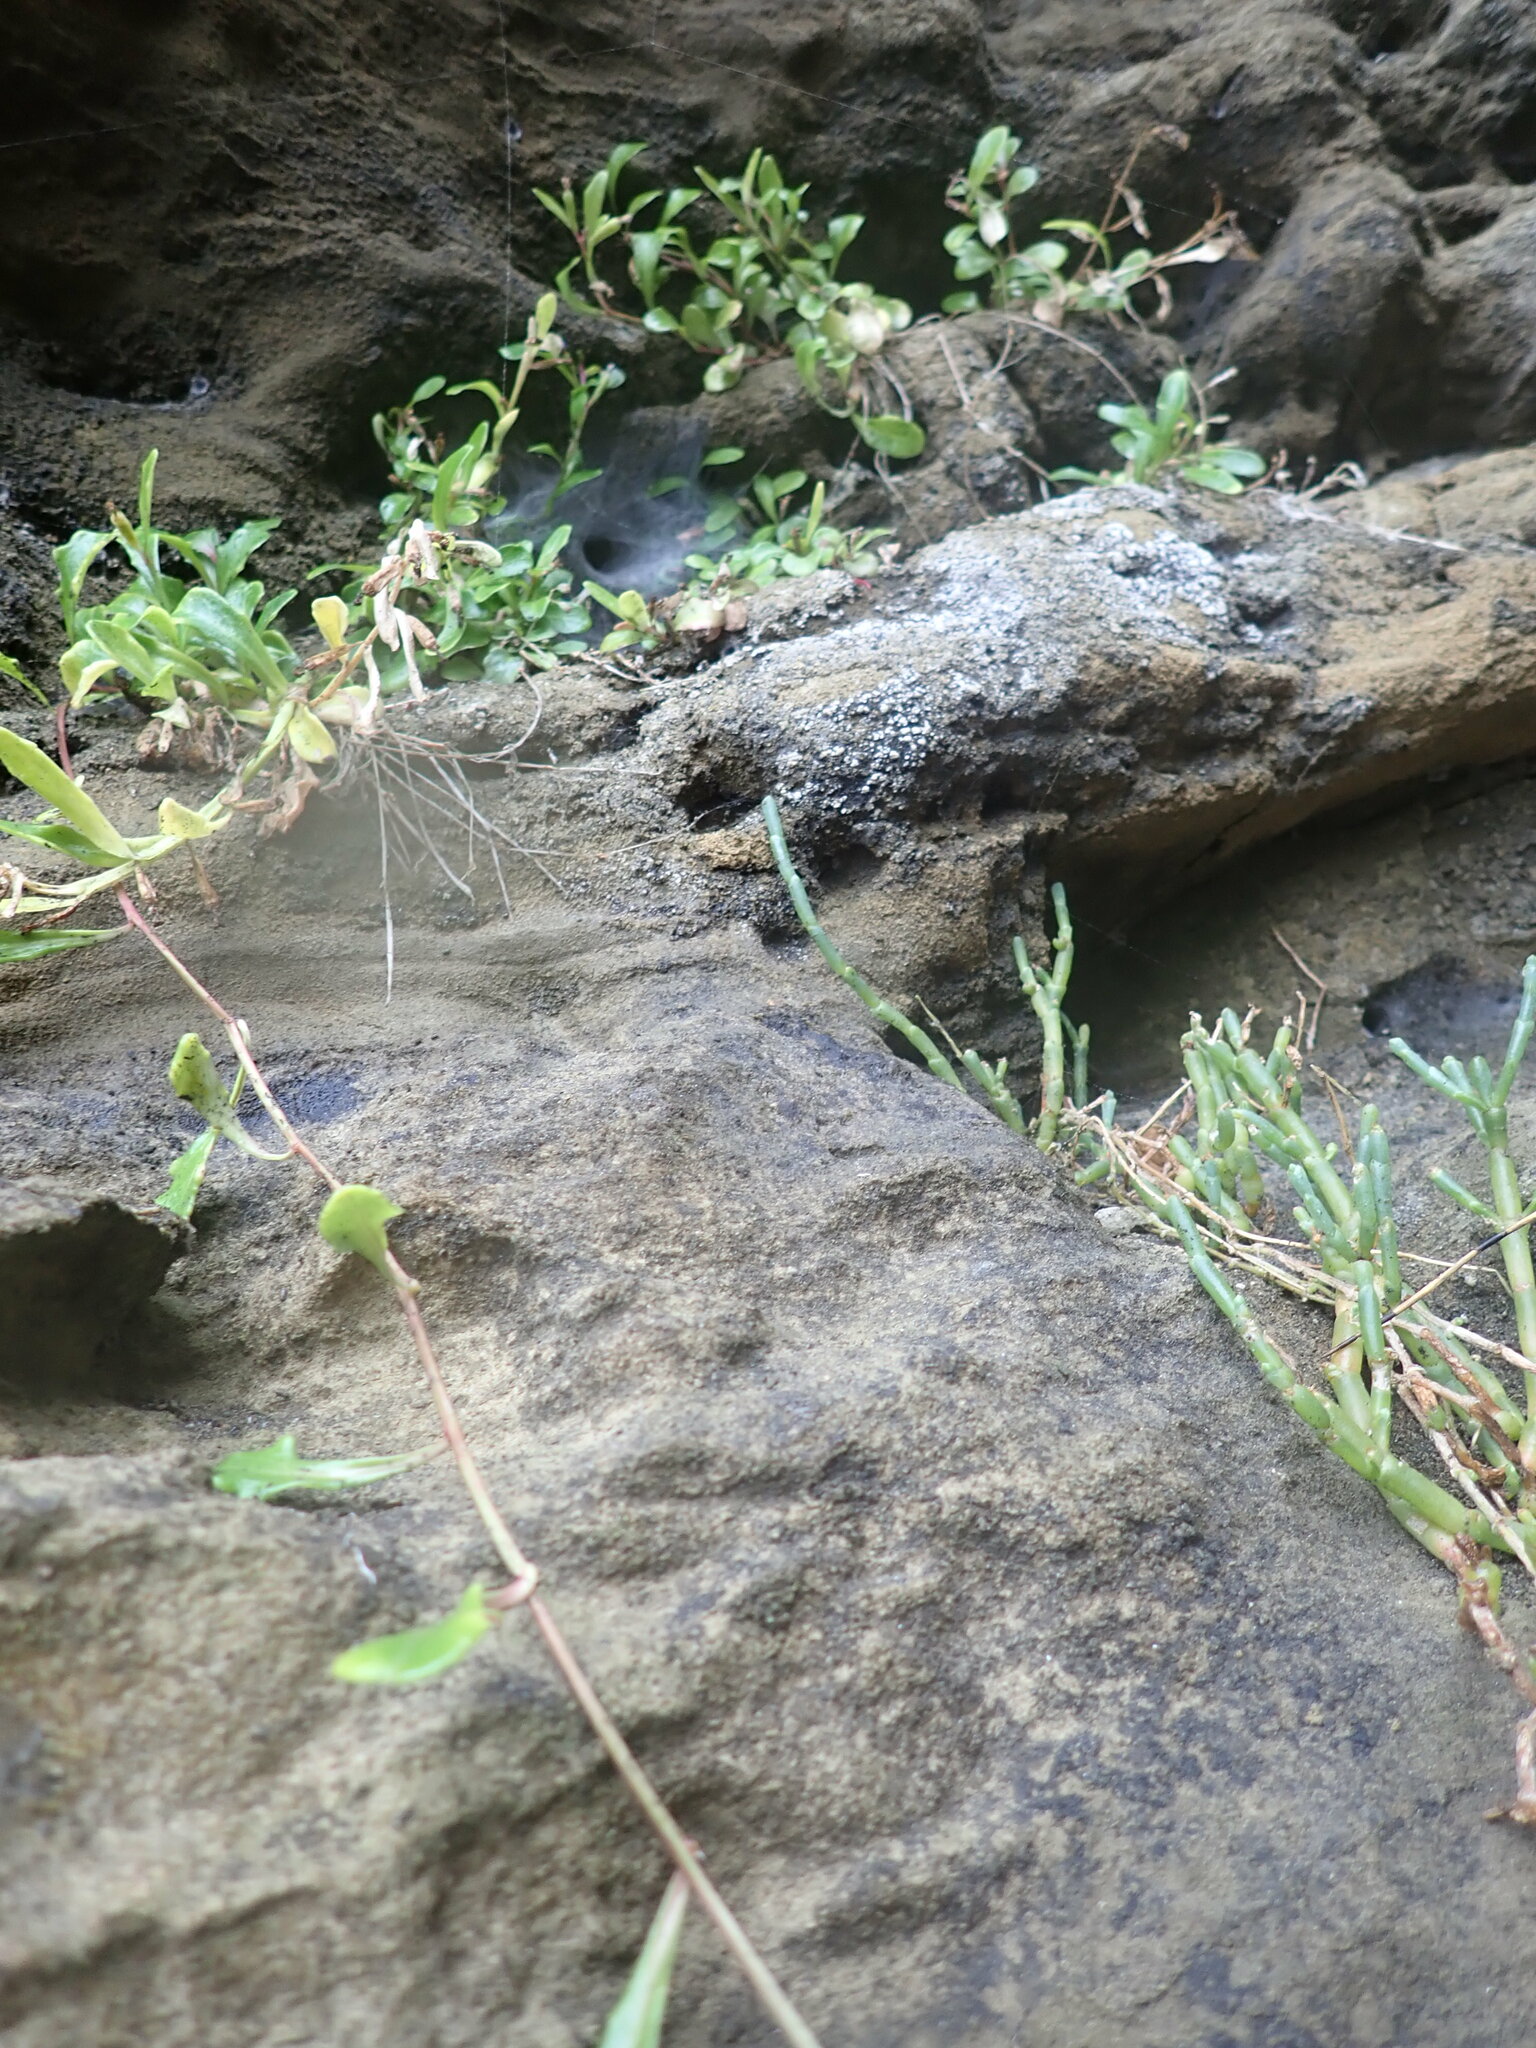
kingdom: Plantae
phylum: Tracheophyta
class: Magnoliopsida
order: Asterales
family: Campanulaceae
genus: Lobelia
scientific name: Lobelia anceps
